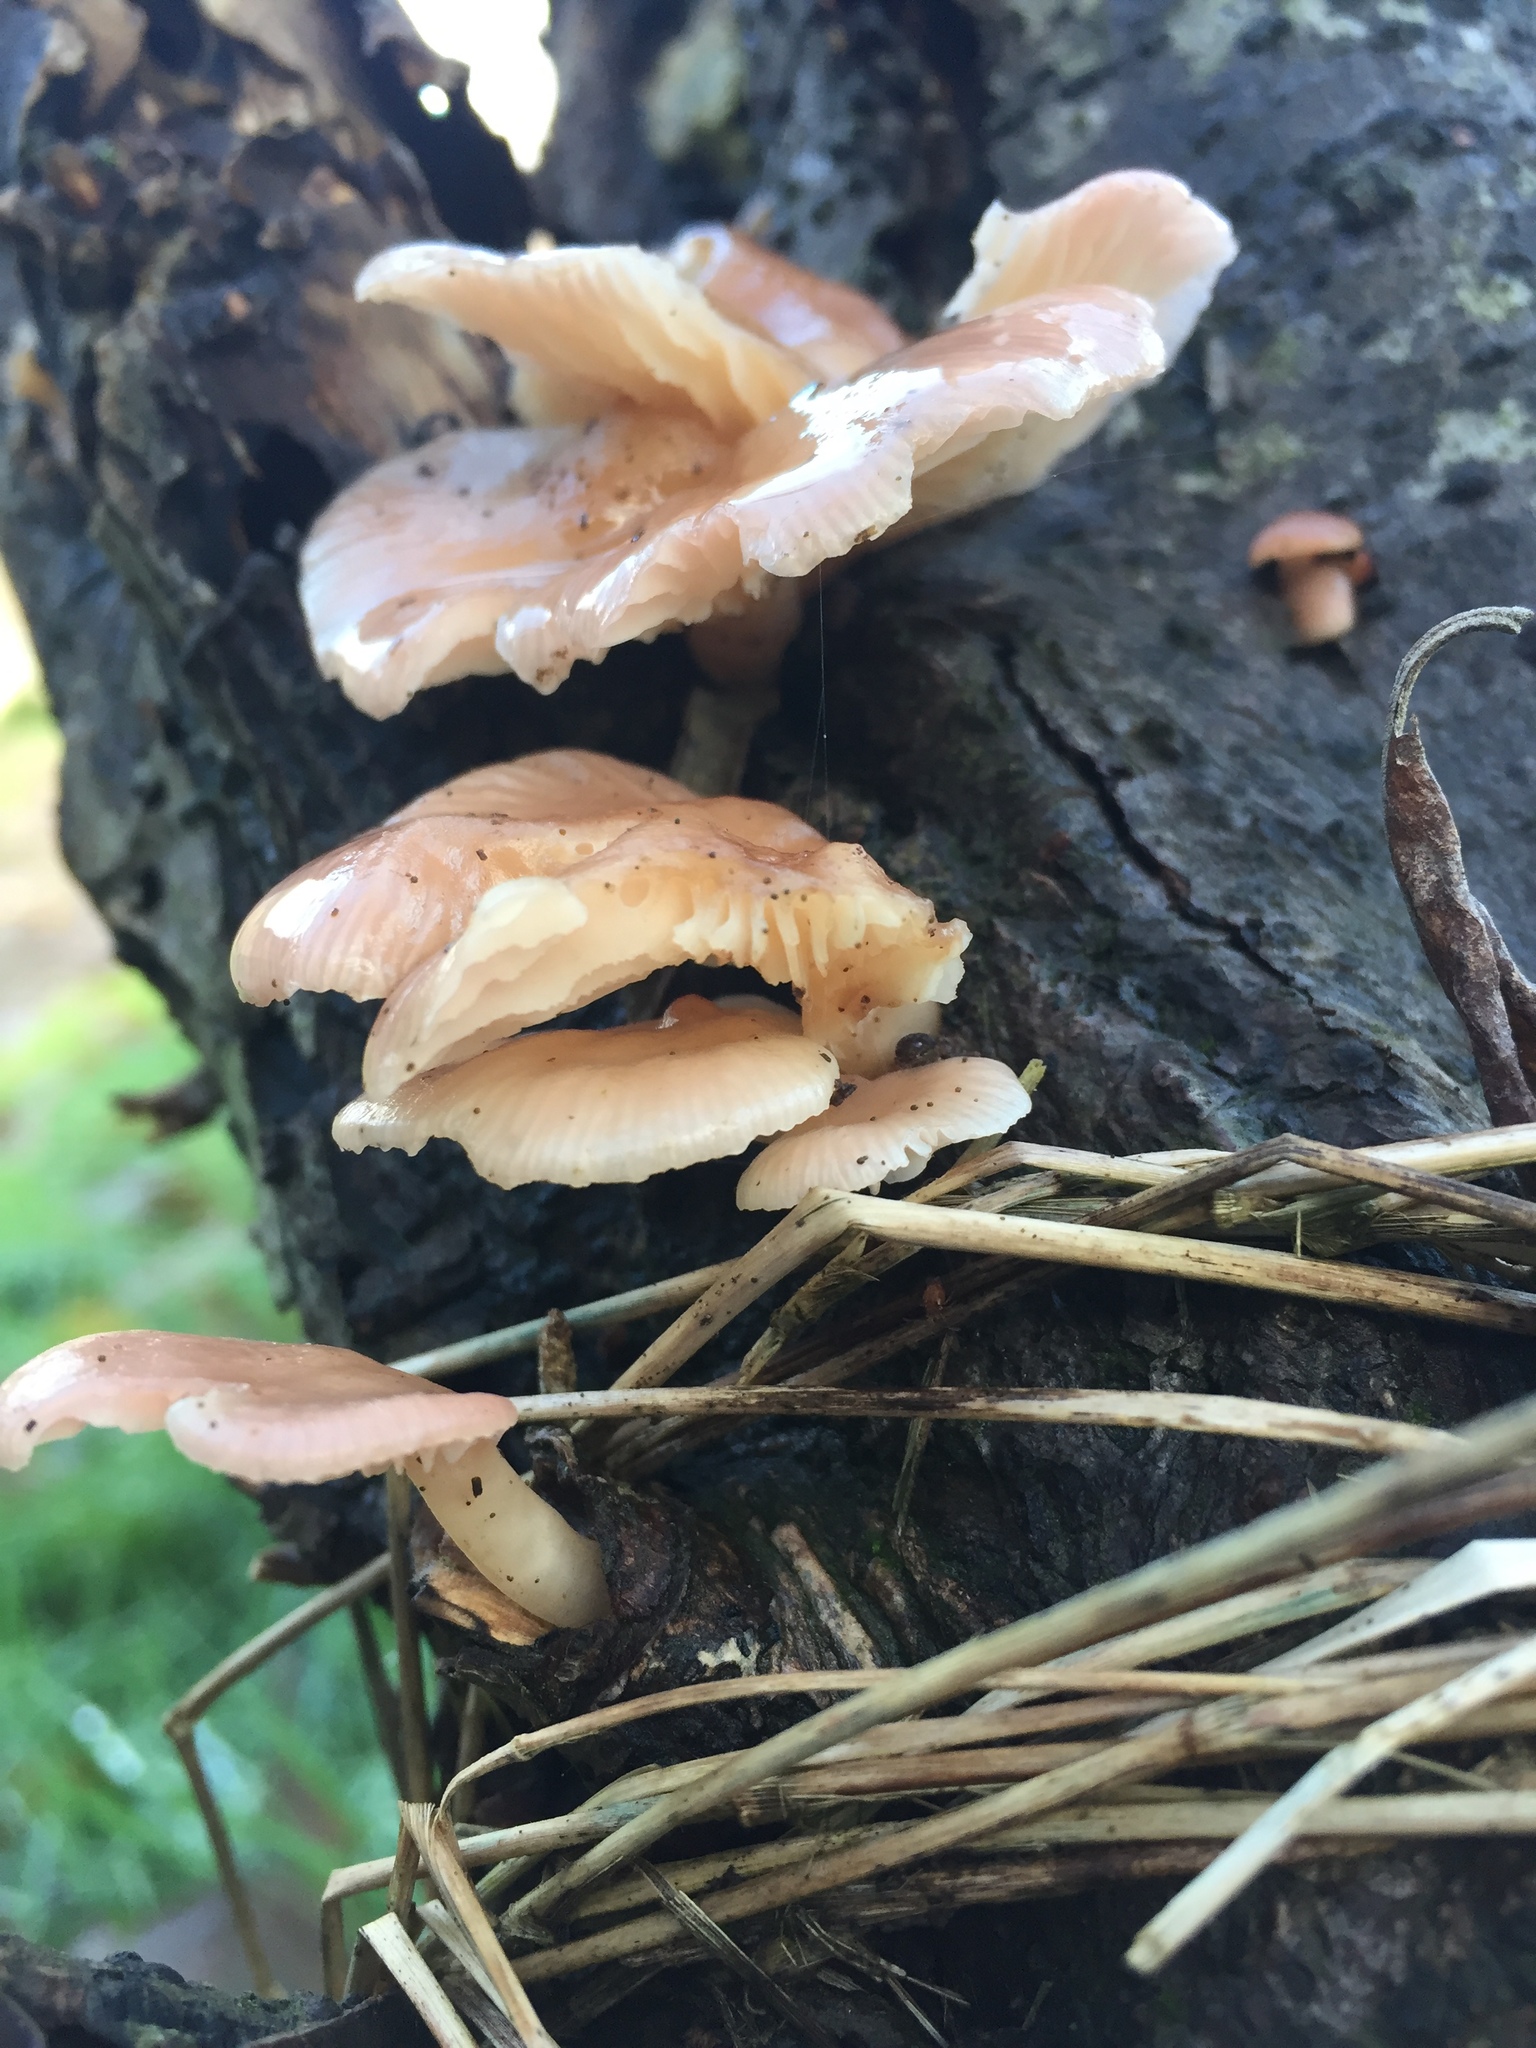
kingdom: Fungi
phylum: Basidiomycota
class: Agaricomycetes
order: Agaricales
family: Pleurotaceae
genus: Pleurotus
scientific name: Pleurotus ostreatus
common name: Oyster mushroom
